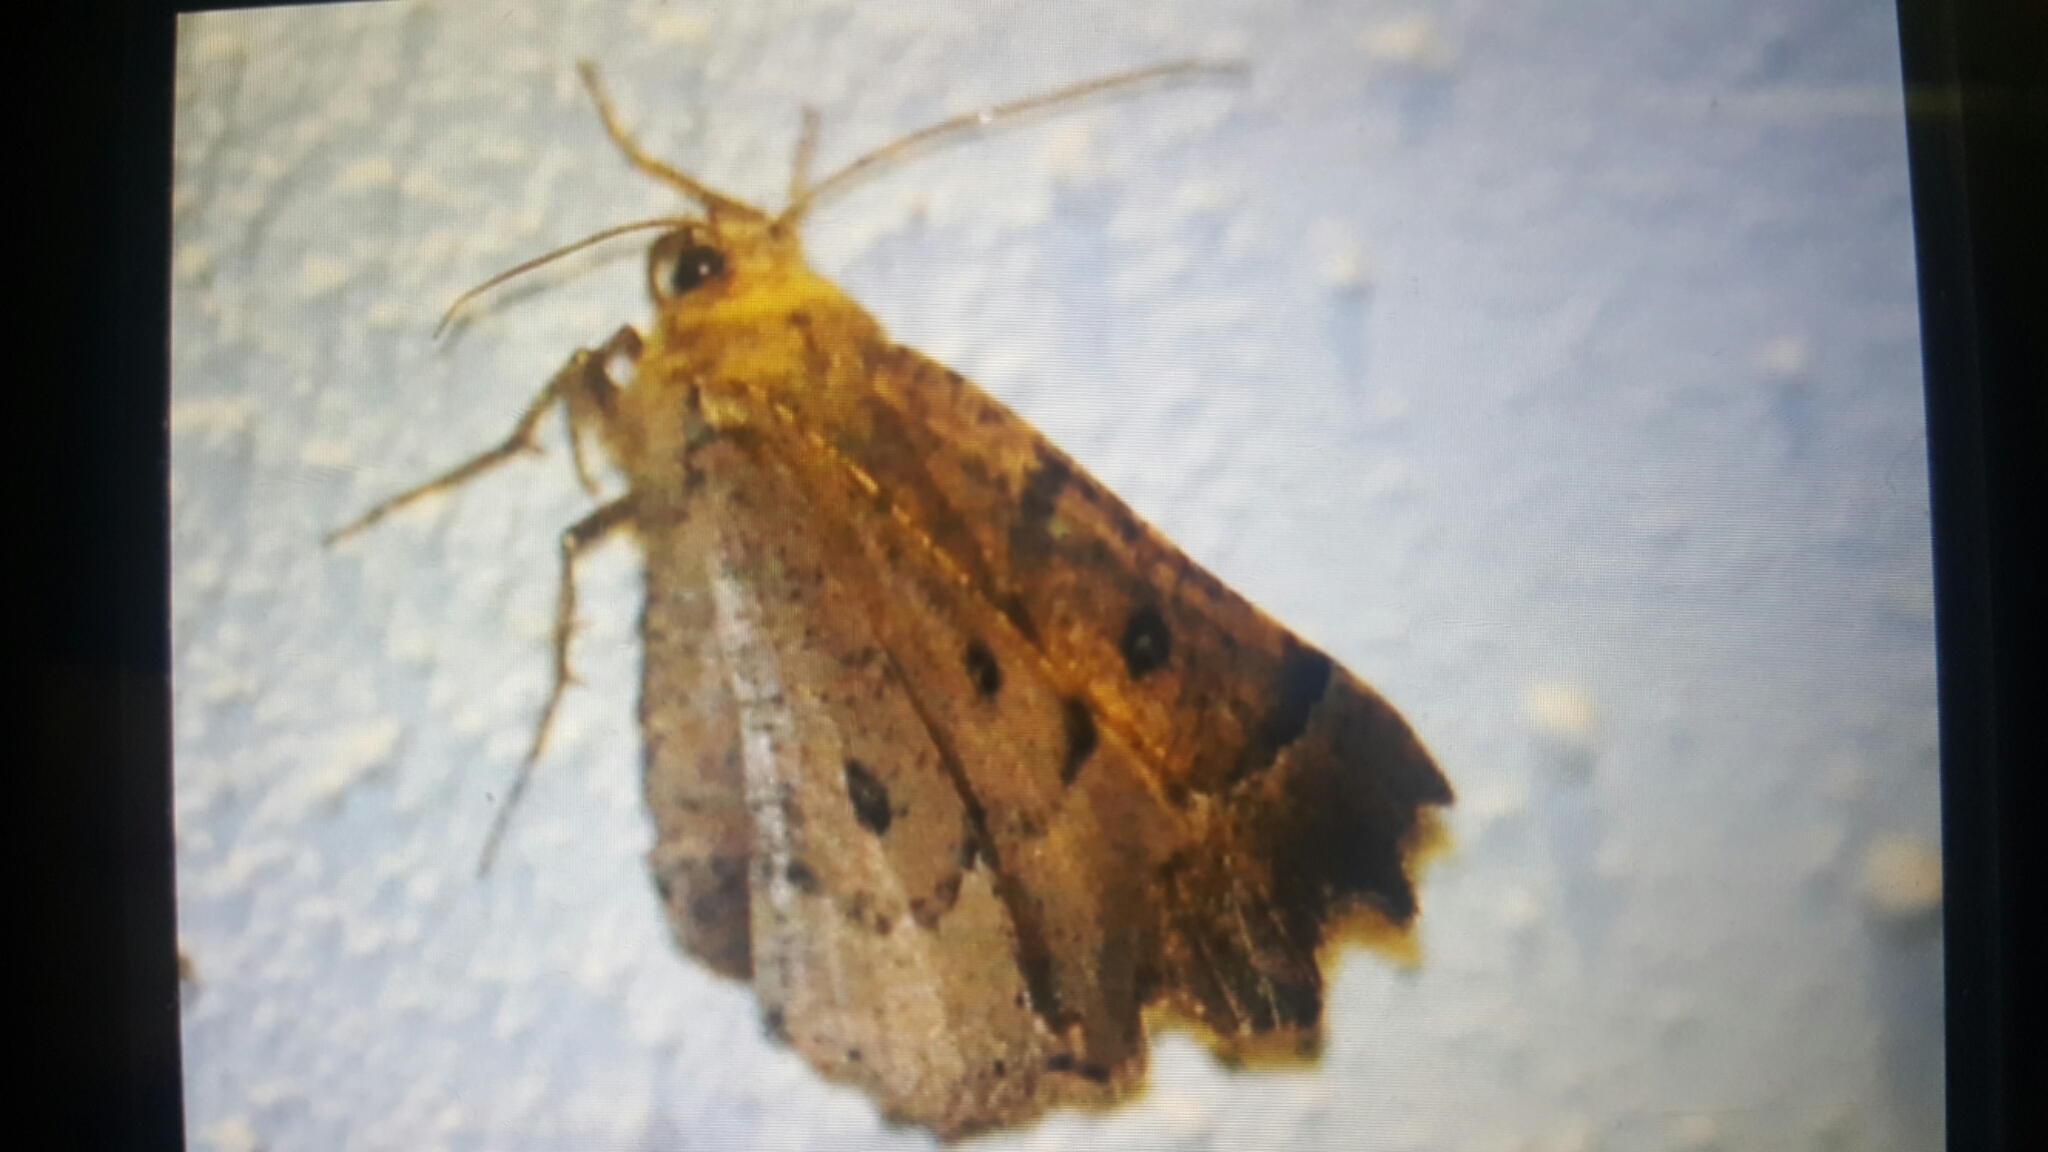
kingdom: Animalia
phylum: Arthropoda
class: Insecta
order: Lepidoptera
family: Geometridae
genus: Odontopera
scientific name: Odontopera bidentata
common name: Scalloped hazel
